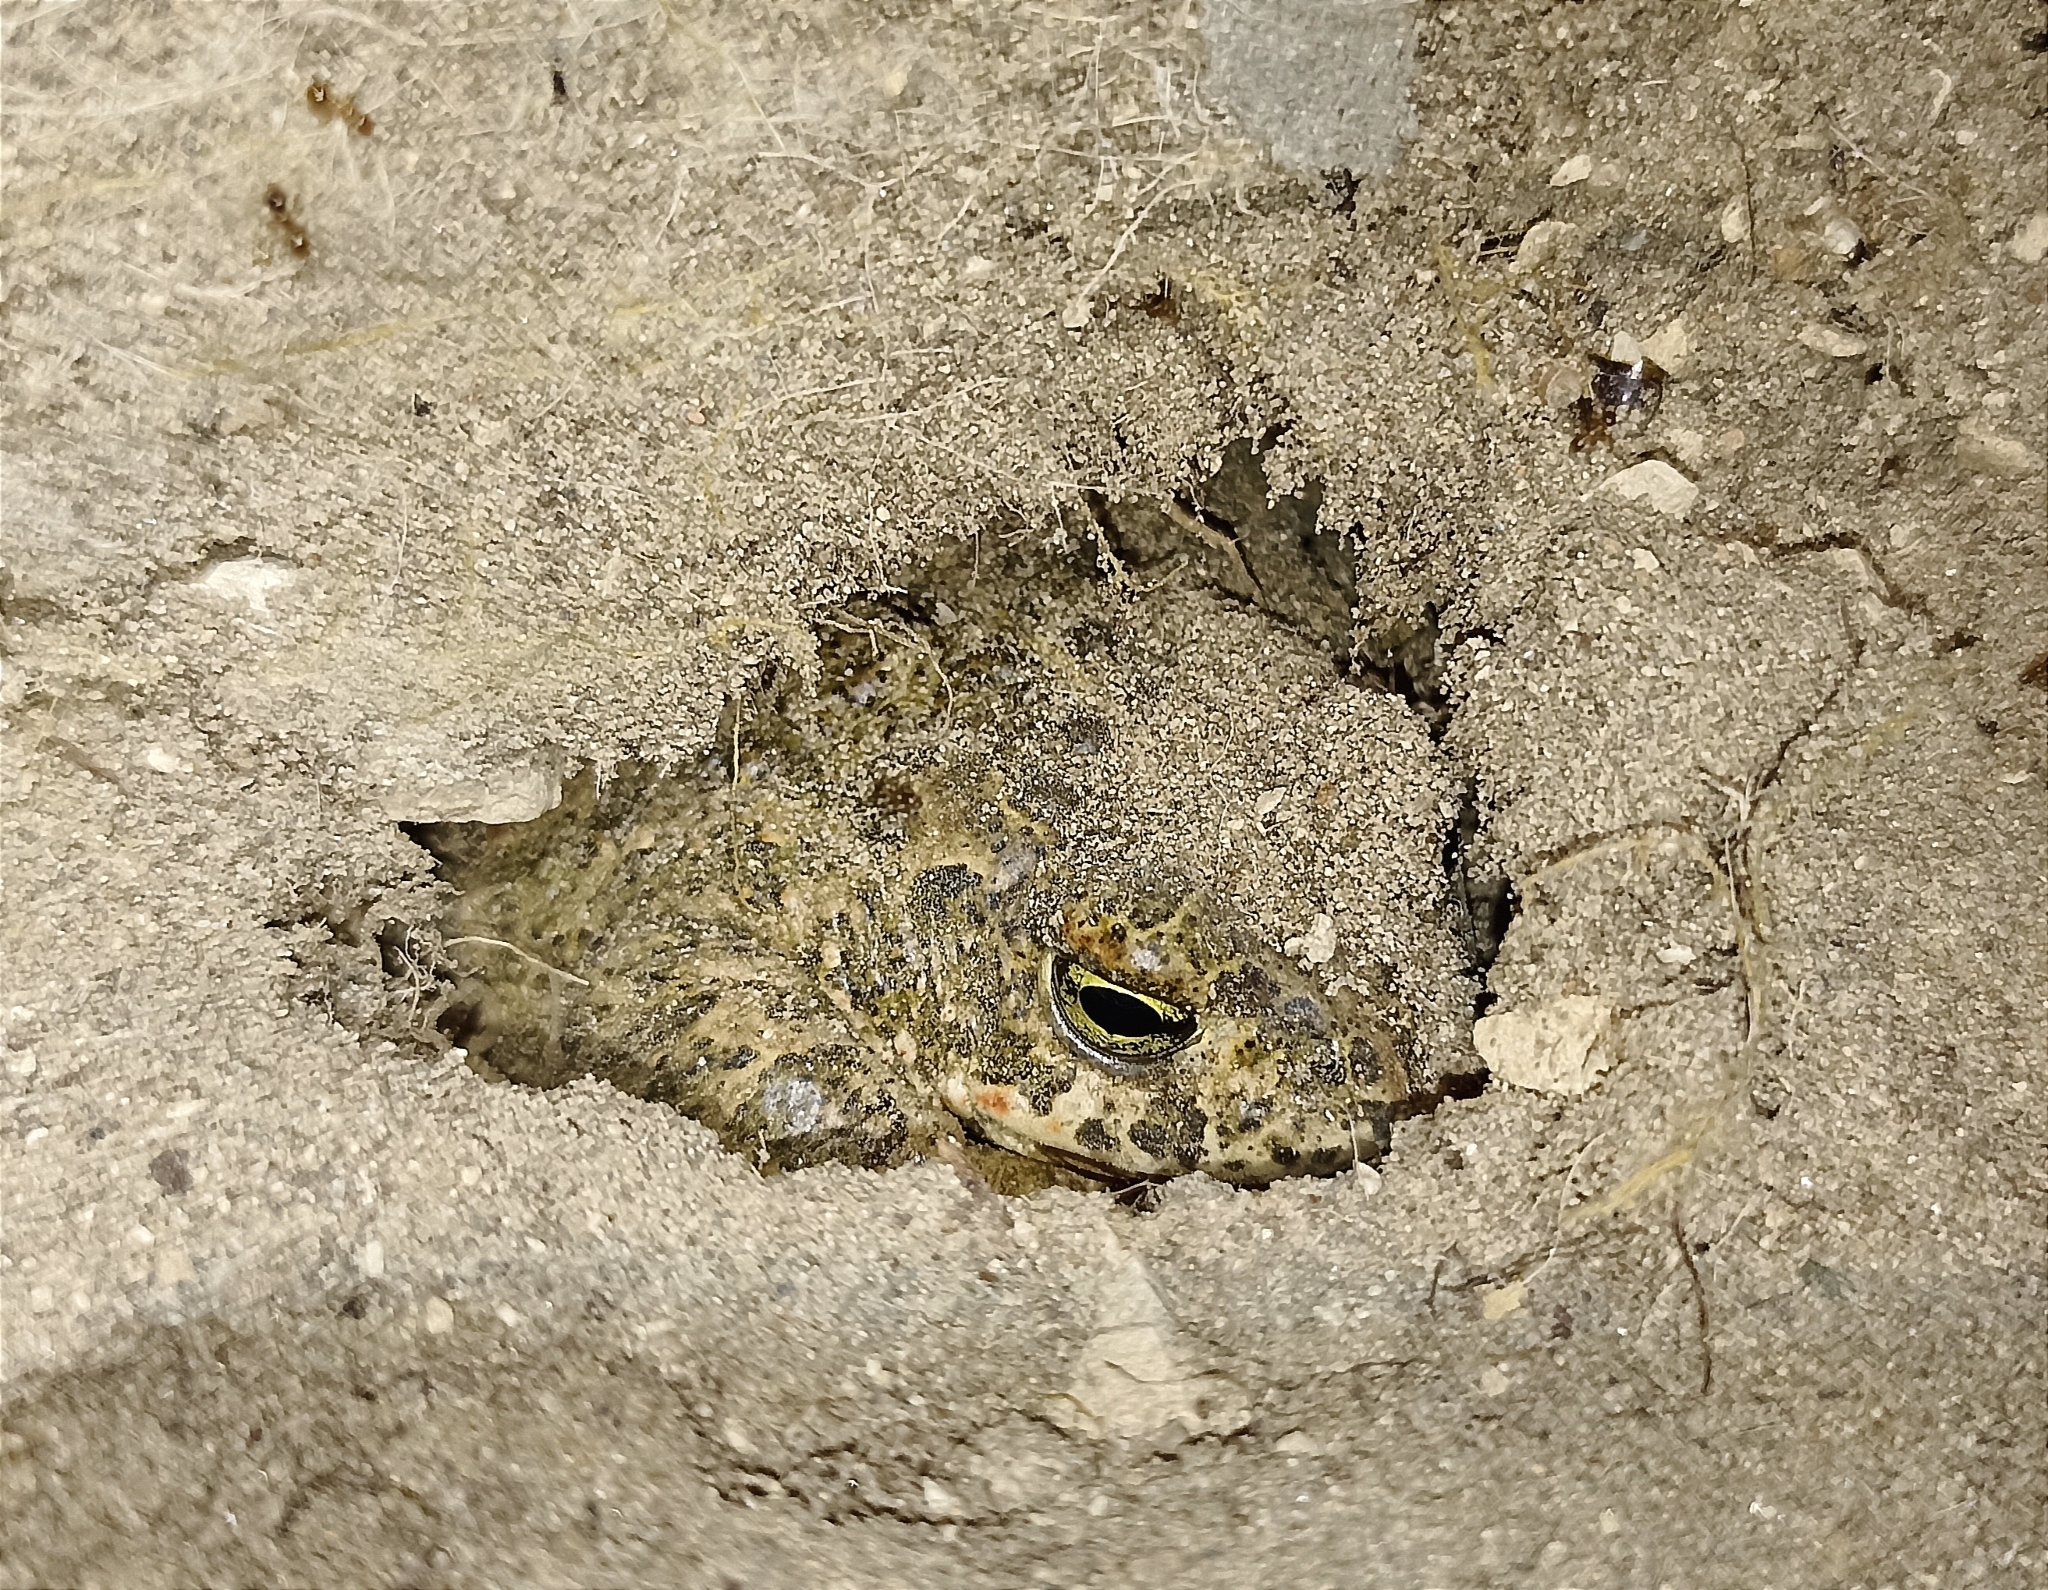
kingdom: Animalia
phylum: Chordata
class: Amphibia
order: Anura
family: Bufonidae
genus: Epidalea
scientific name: Epidalea calamita
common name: Natterjack toad
